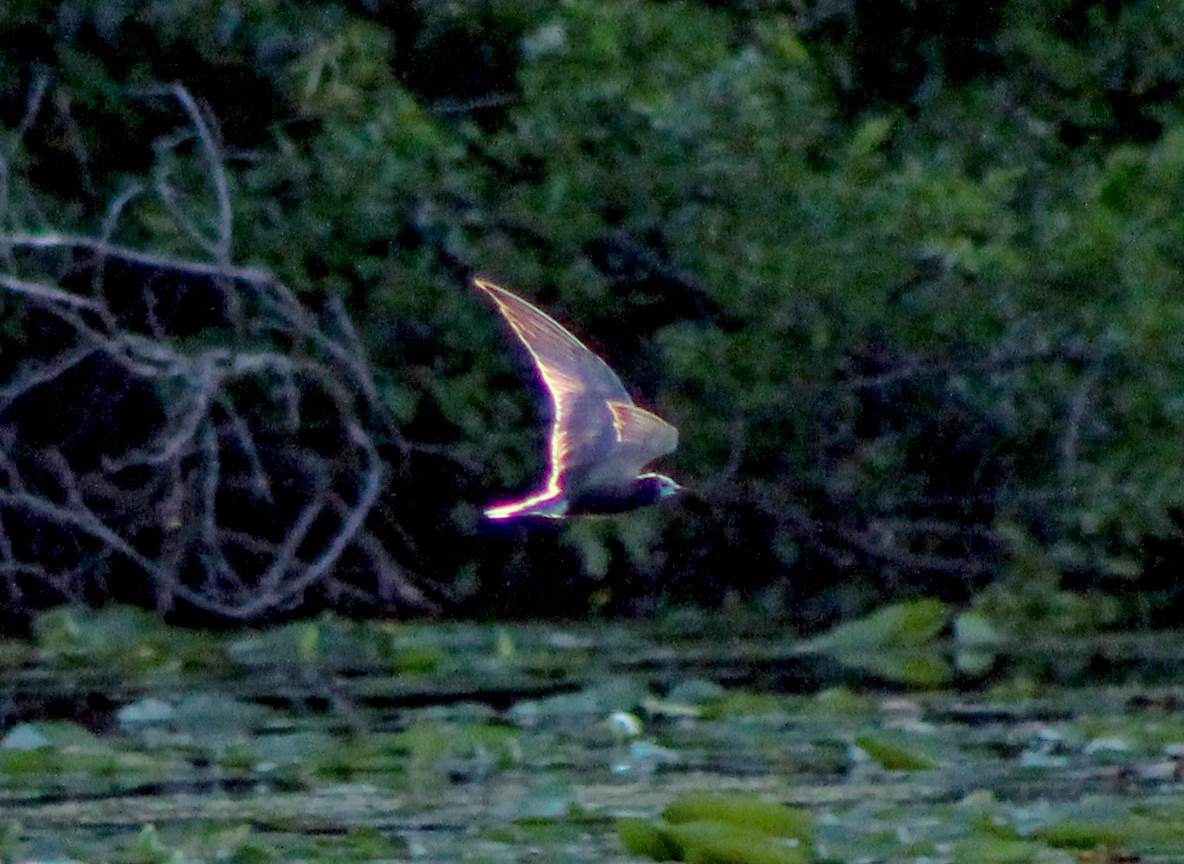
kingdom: Animalia
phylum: Chordata
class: Aves
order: Charadriiformes
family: Laridae
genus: Chlidonias
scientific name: Chlidonias niger
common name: Black tern
